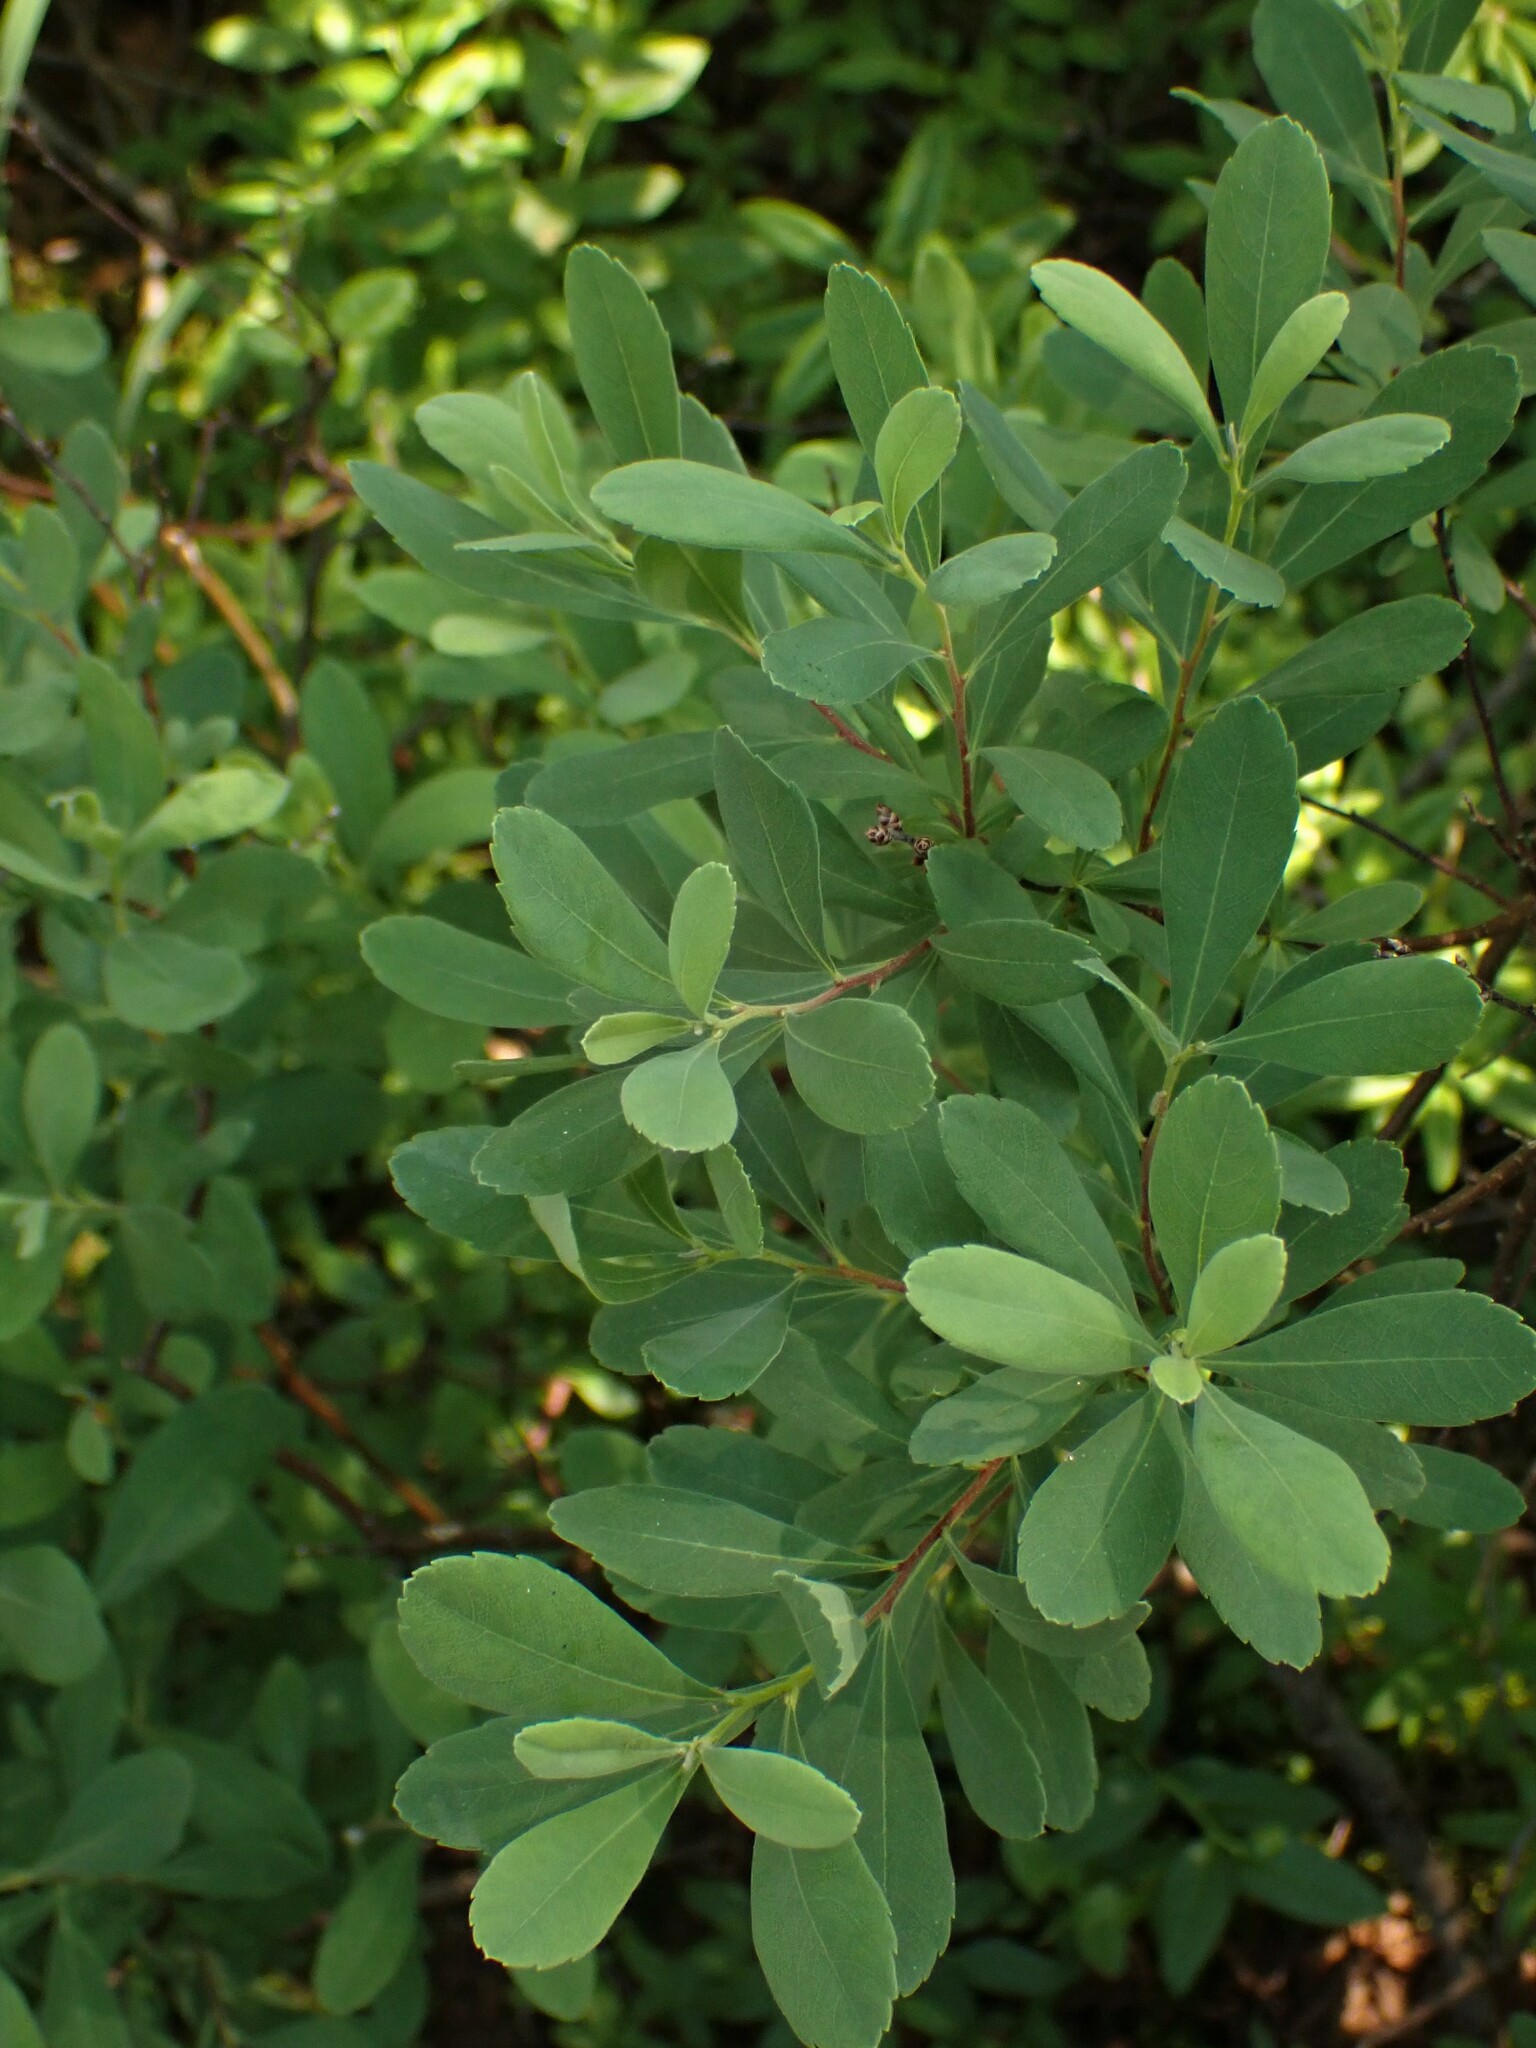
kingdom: Plantae
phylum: Tracheophyta
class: Magnoliopsida
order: Fagales
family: Myricaceae
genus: Myrica
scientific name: Myrica gale
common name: Sweet gale
